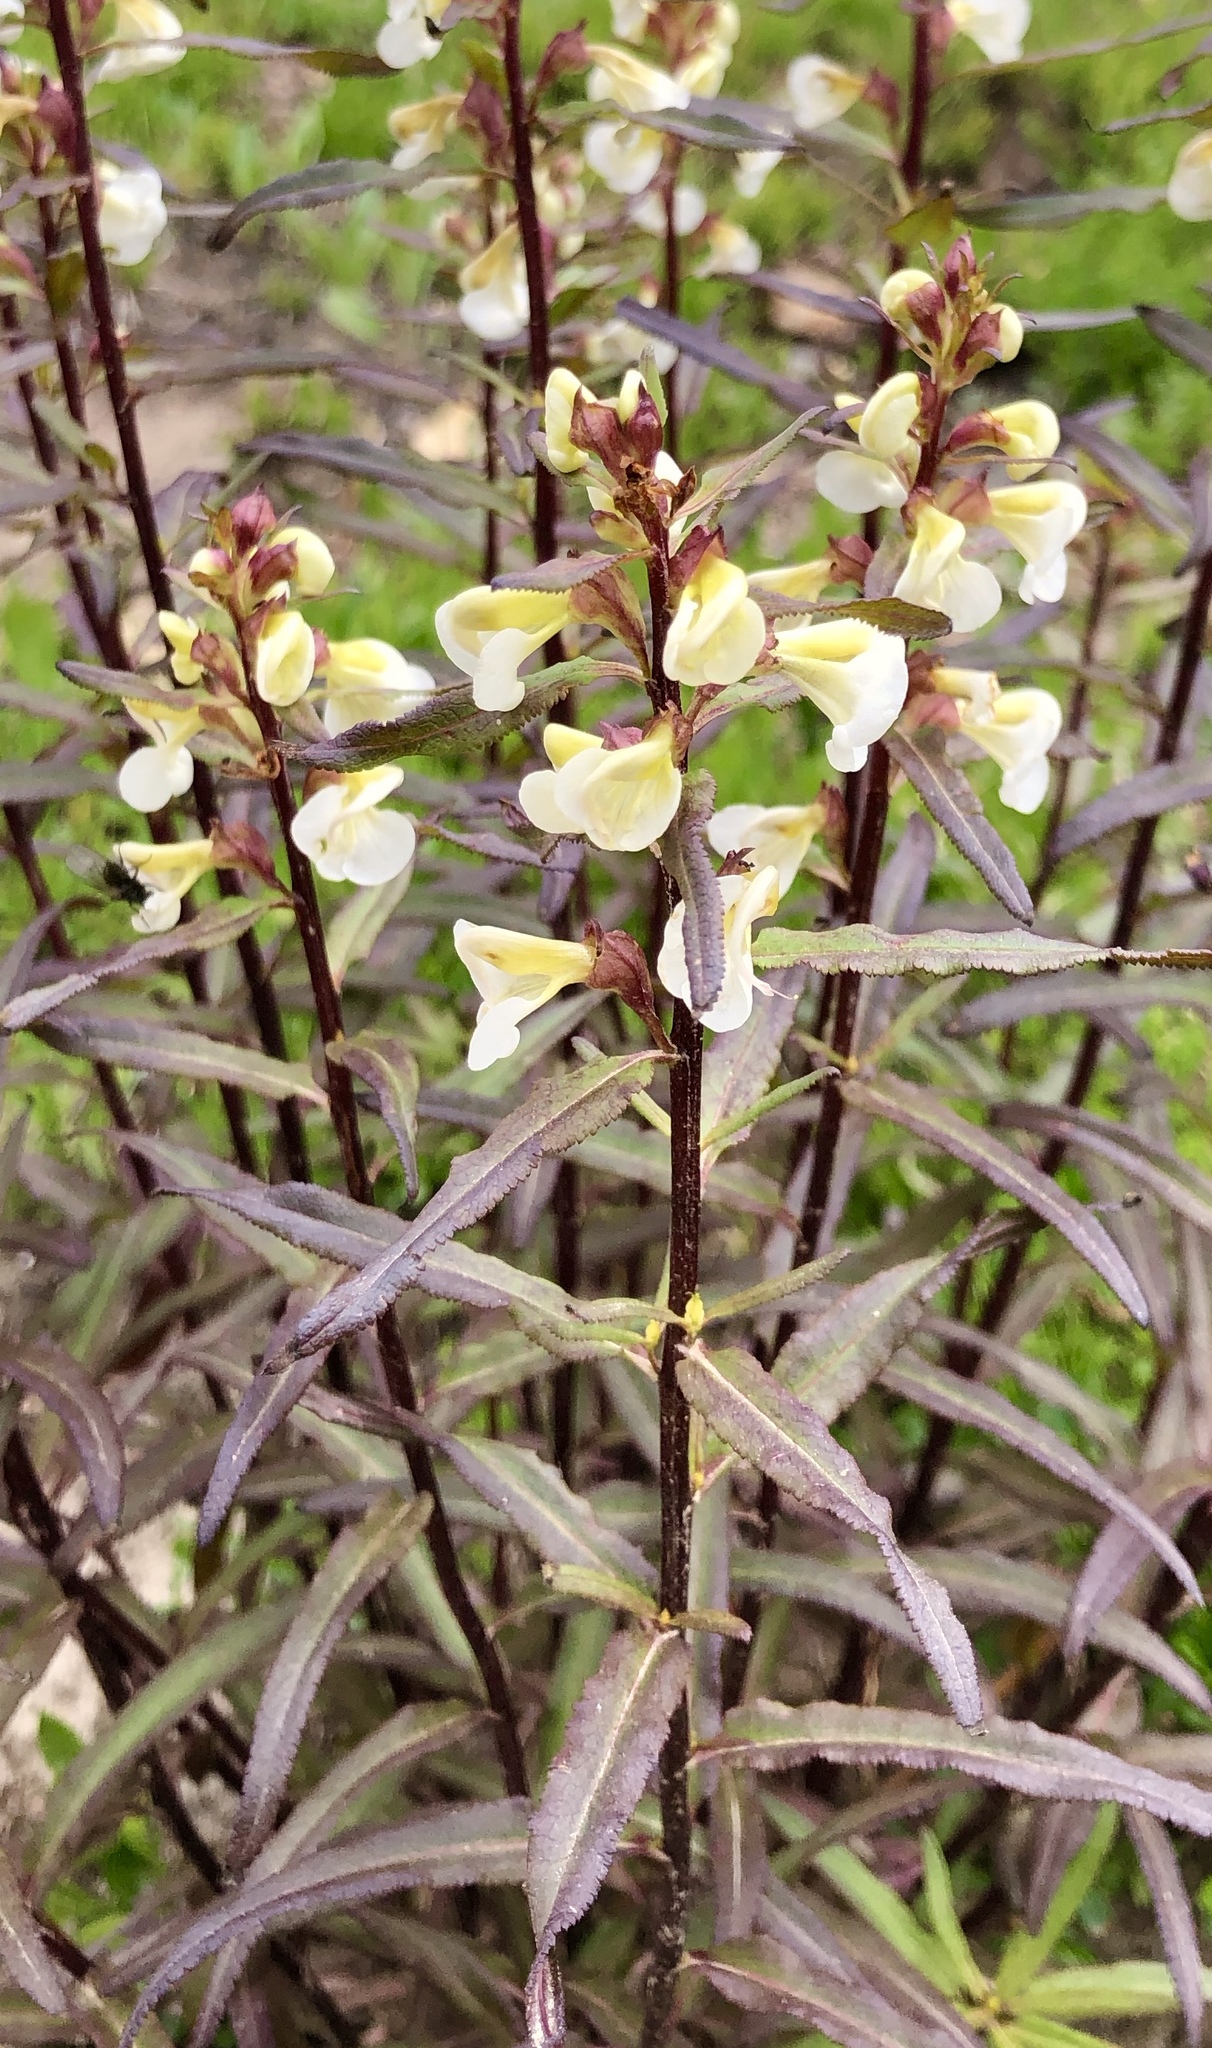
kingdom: Plantae
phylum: Tracheophyta
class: Magnoliopsida
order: Lamiales
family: Orobanchaceae
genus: Pedicularis
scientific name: Pedicularis racemosa
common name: Leafy lousewort
